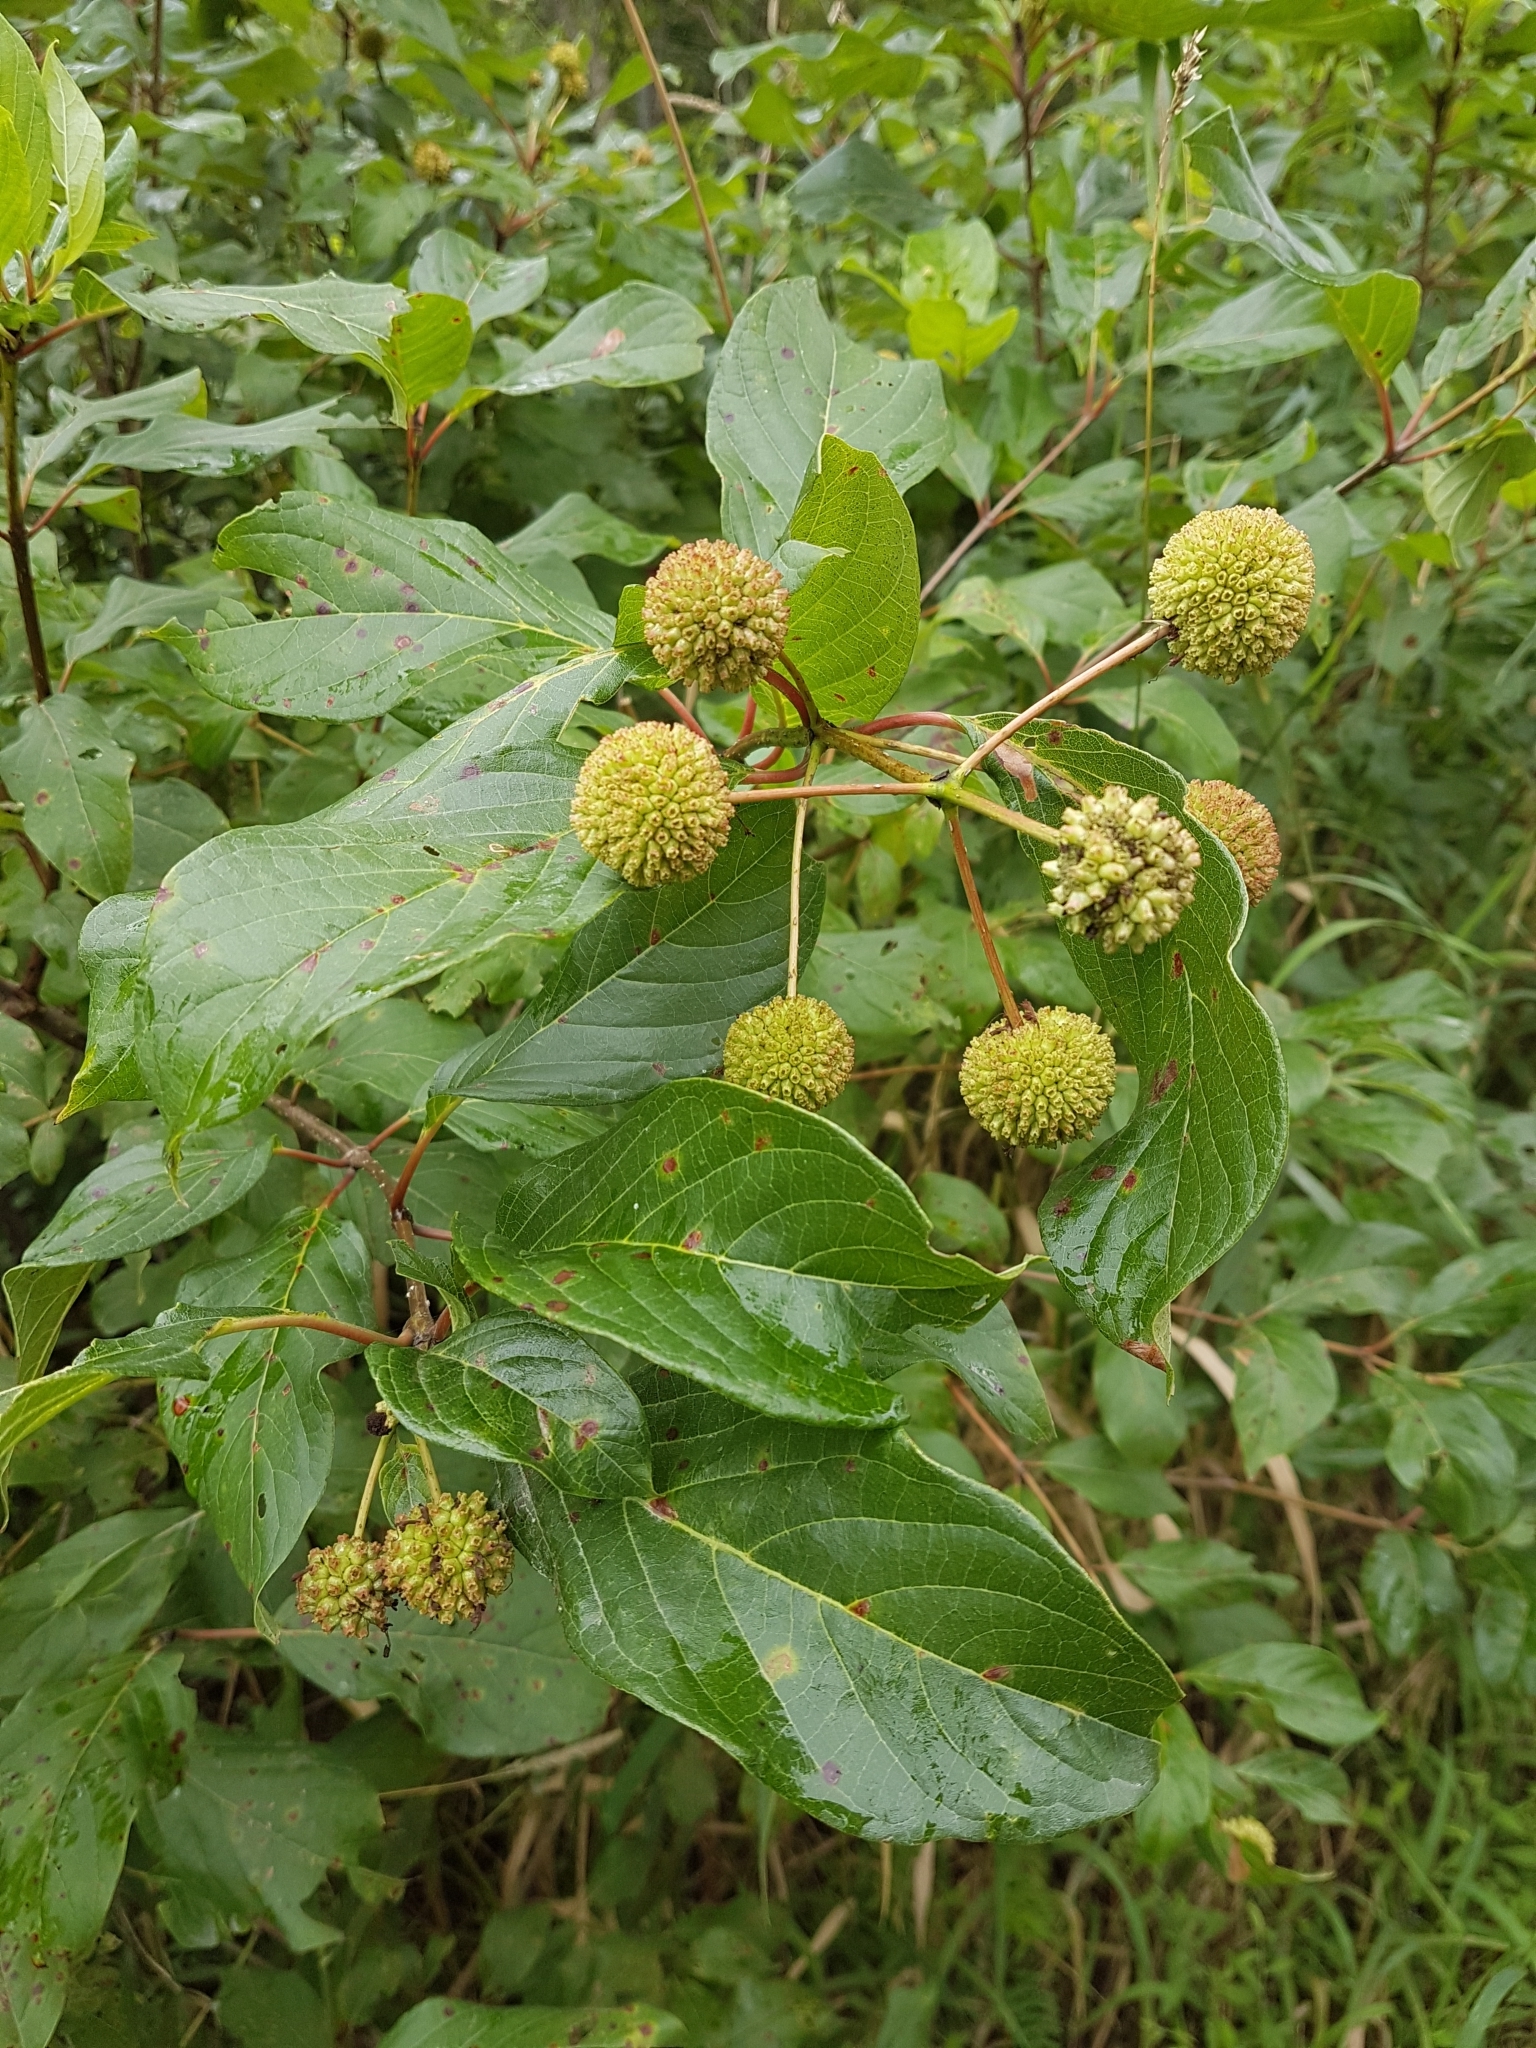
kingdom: Plantae
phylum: Tracheophyta
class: Magnoliopsida
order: Gentianales
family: Rubiaceae
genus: Cephalanthus
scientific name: Cephalanthus occidentalis
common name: Button-willow
